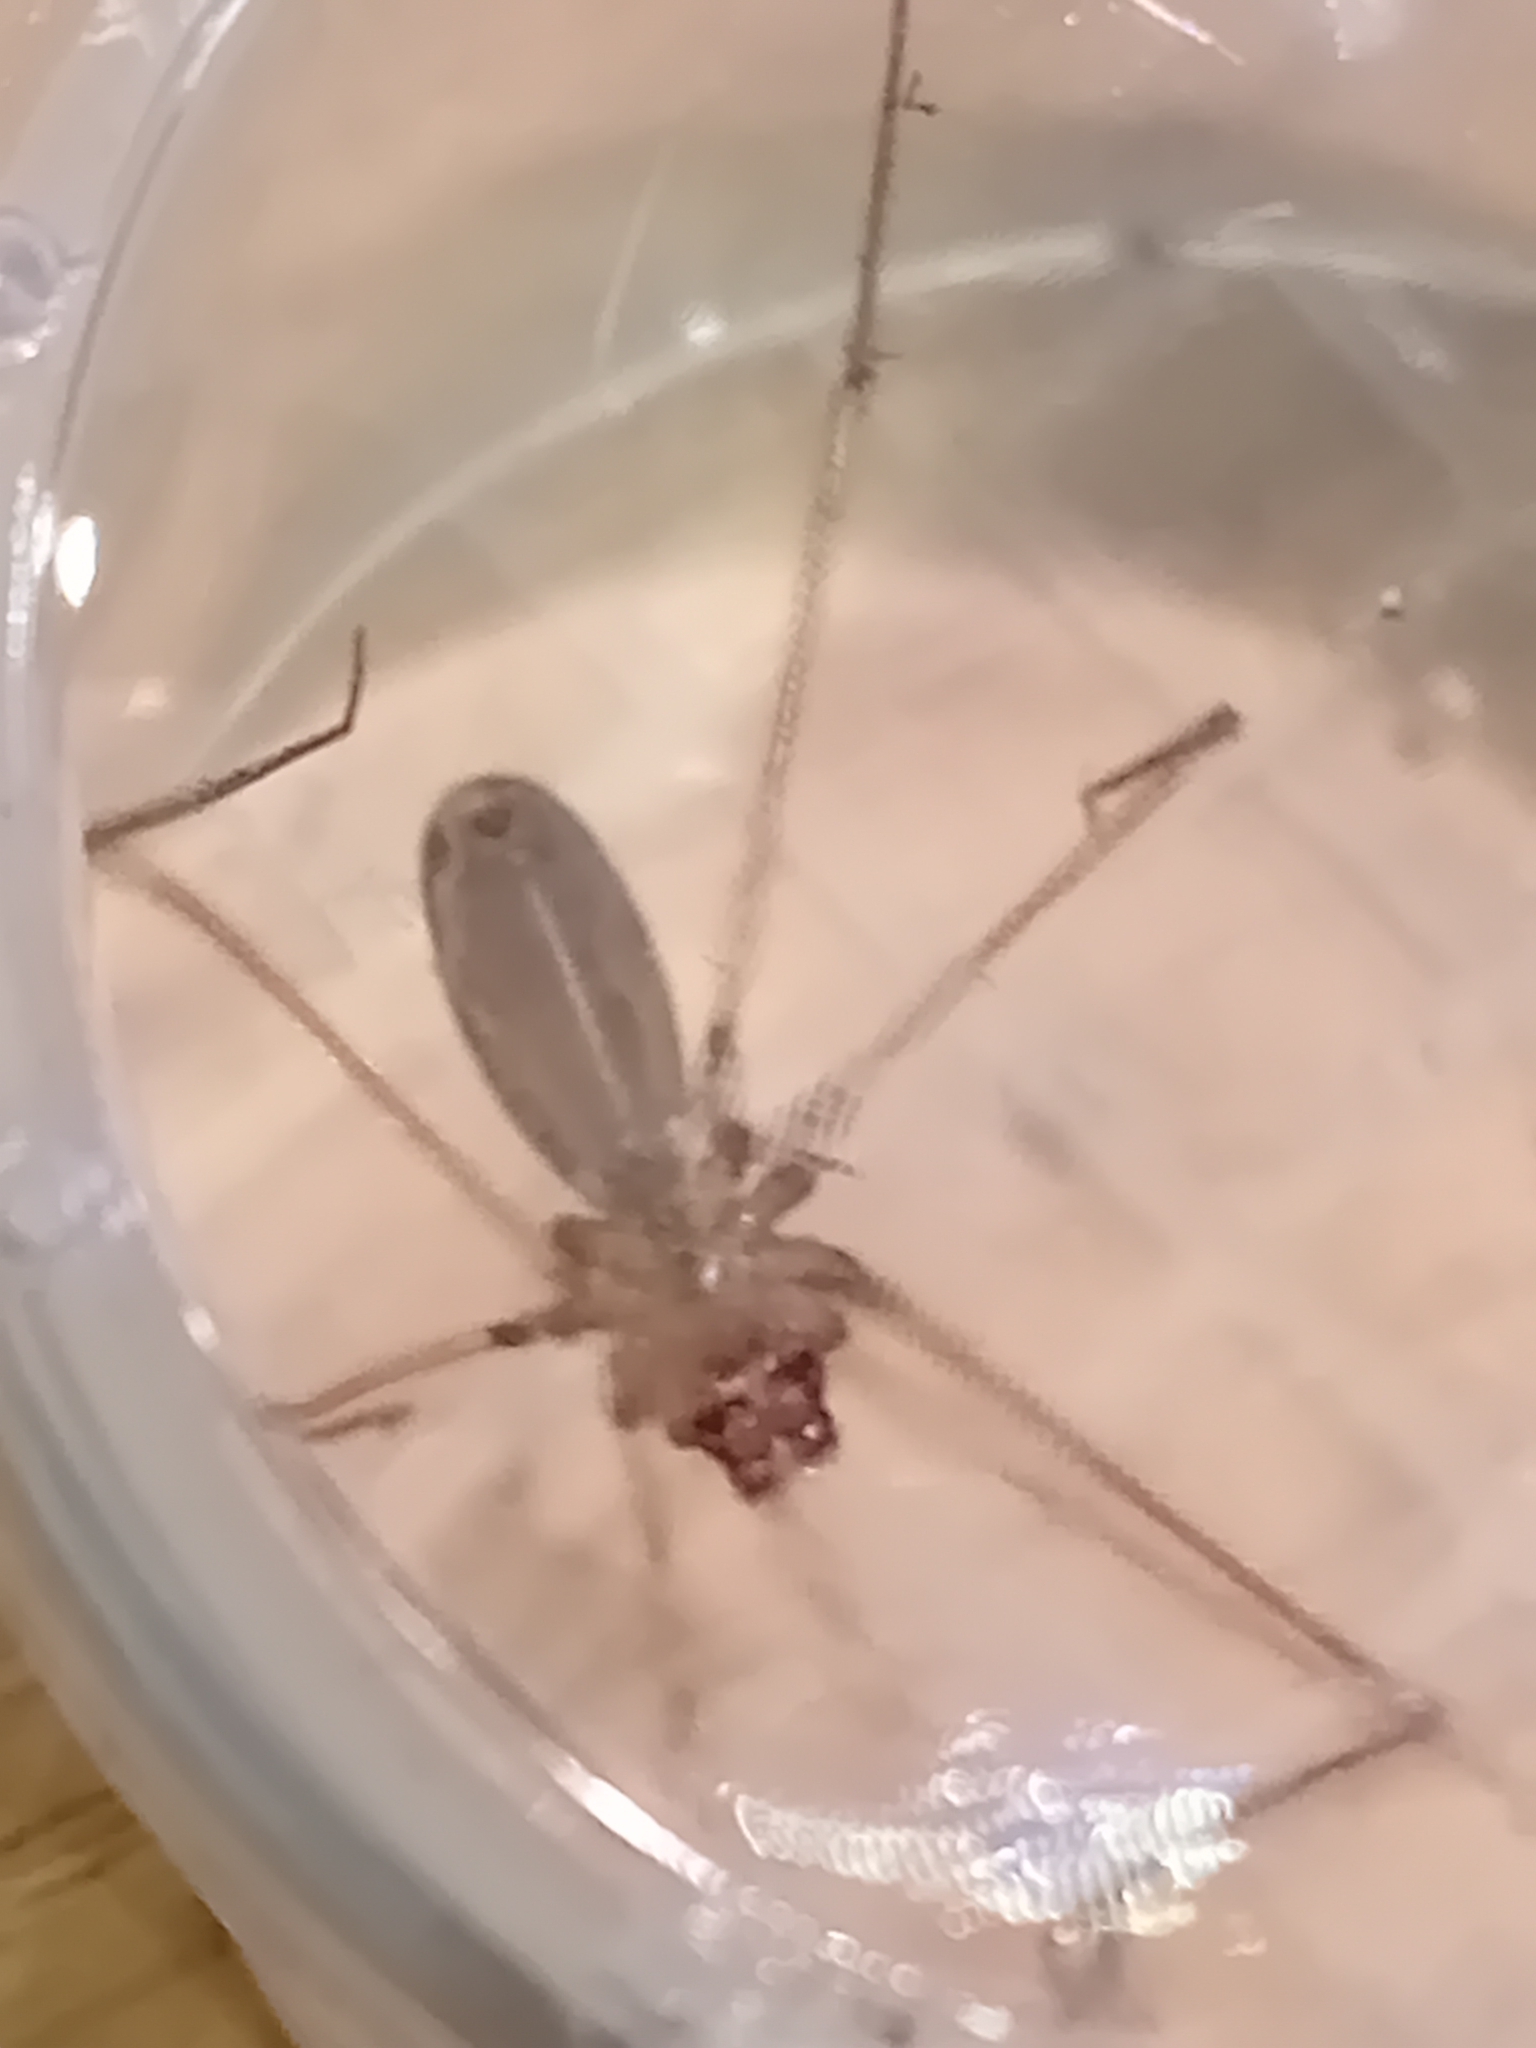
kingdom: Animalia
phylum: Arthropoda
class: Arachnida
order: Araneae
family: Pholcidae
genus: Pholcus
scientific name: Pholcus phalangioides
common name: Longbodied cellar spider
